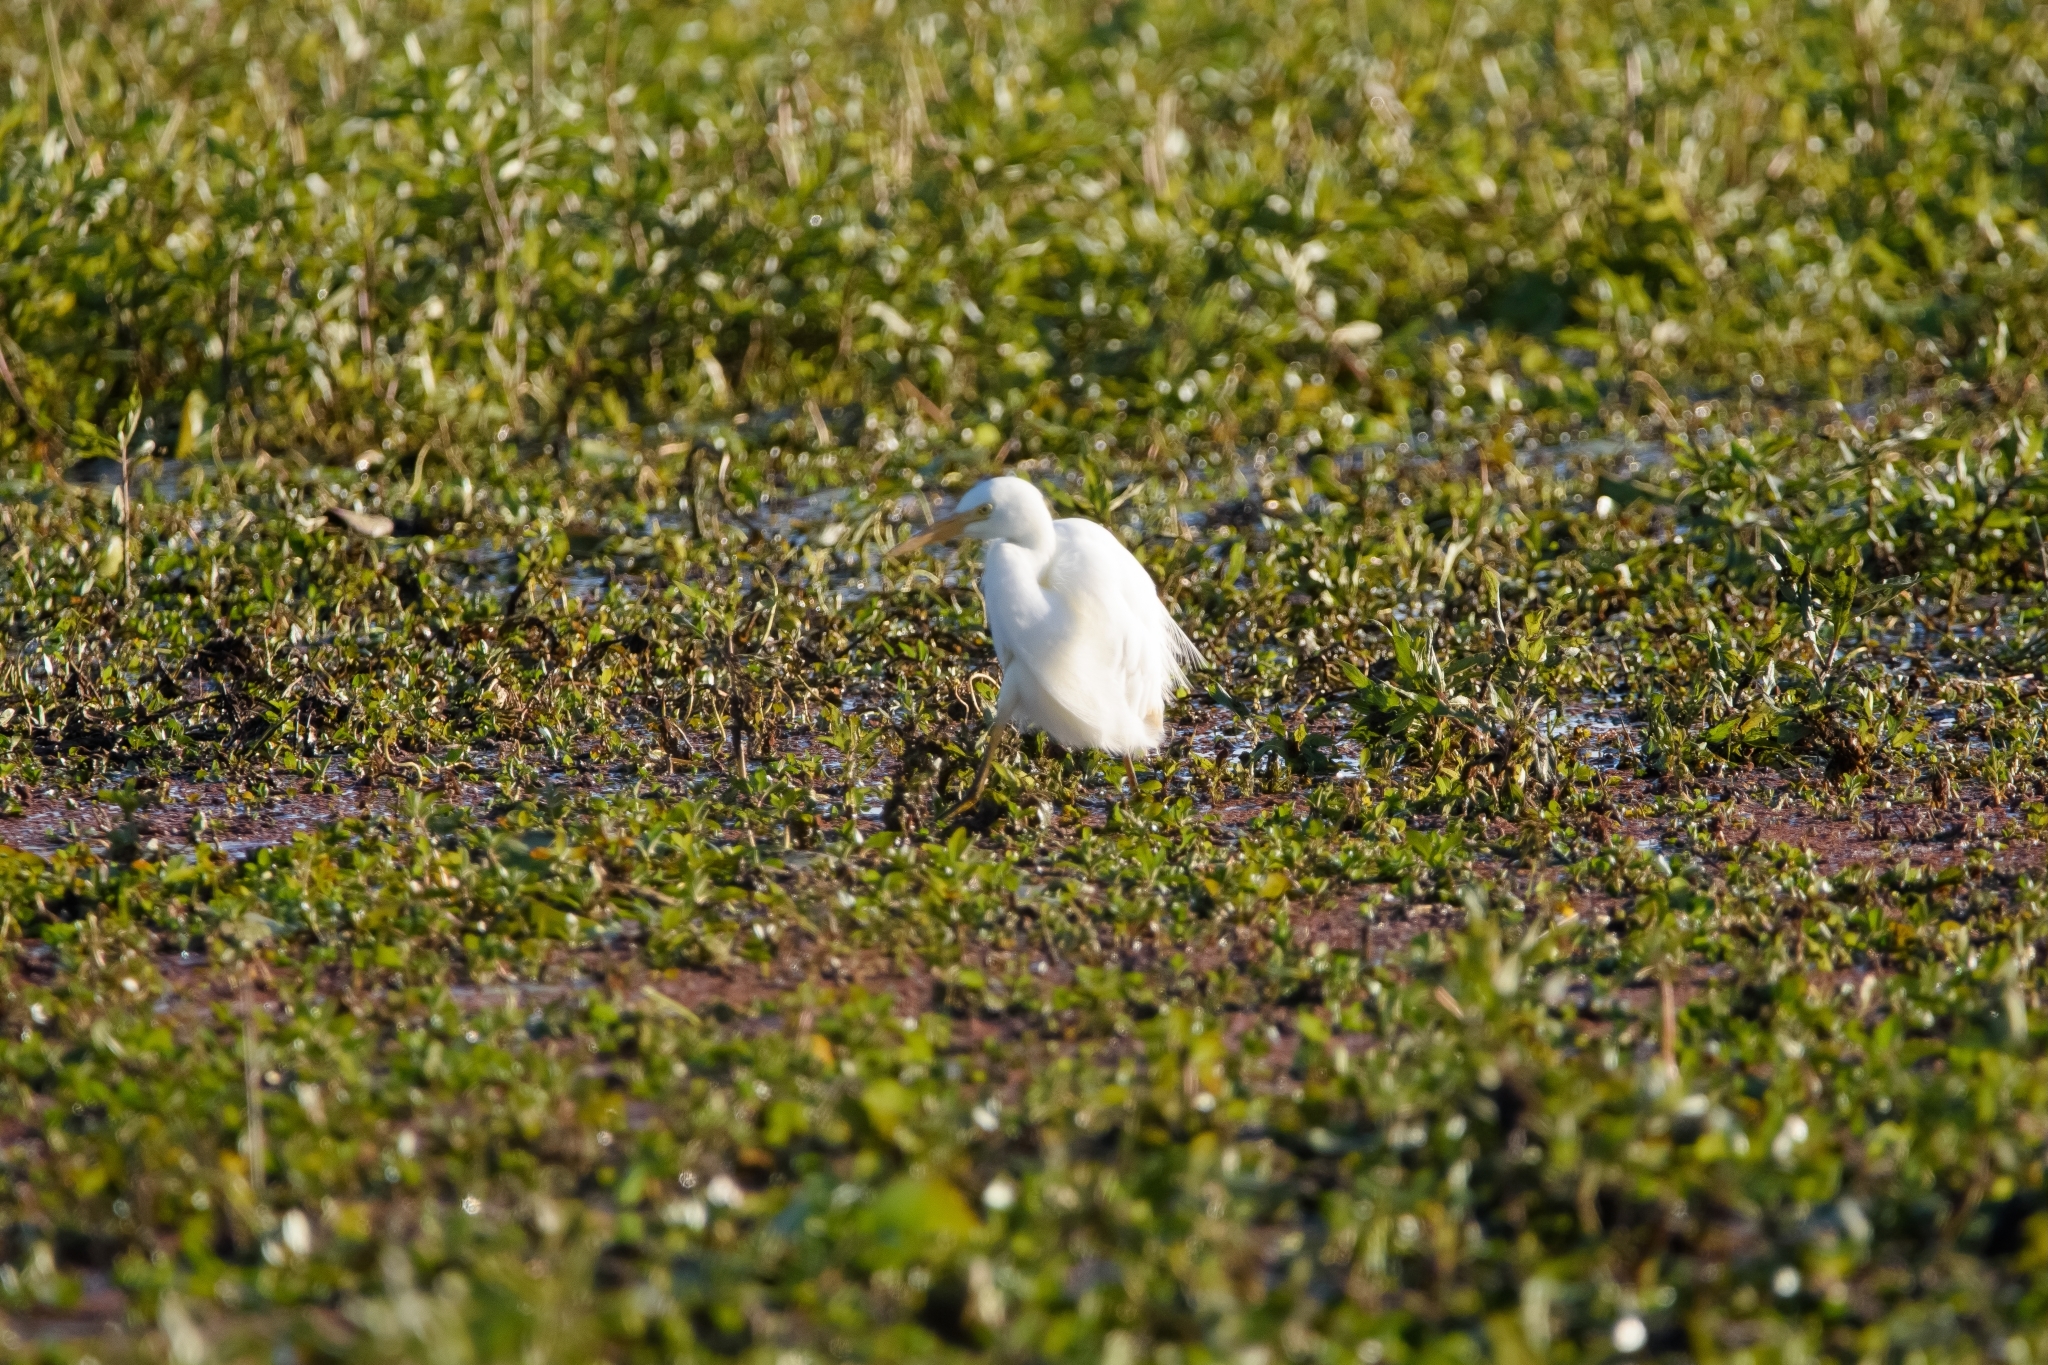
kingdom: Animalia
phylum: Chordata
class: Aves
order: Pelecaniformes
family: Ardeidae
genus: Egretta
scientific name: Egretta intermedia
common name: Intermediate egret
